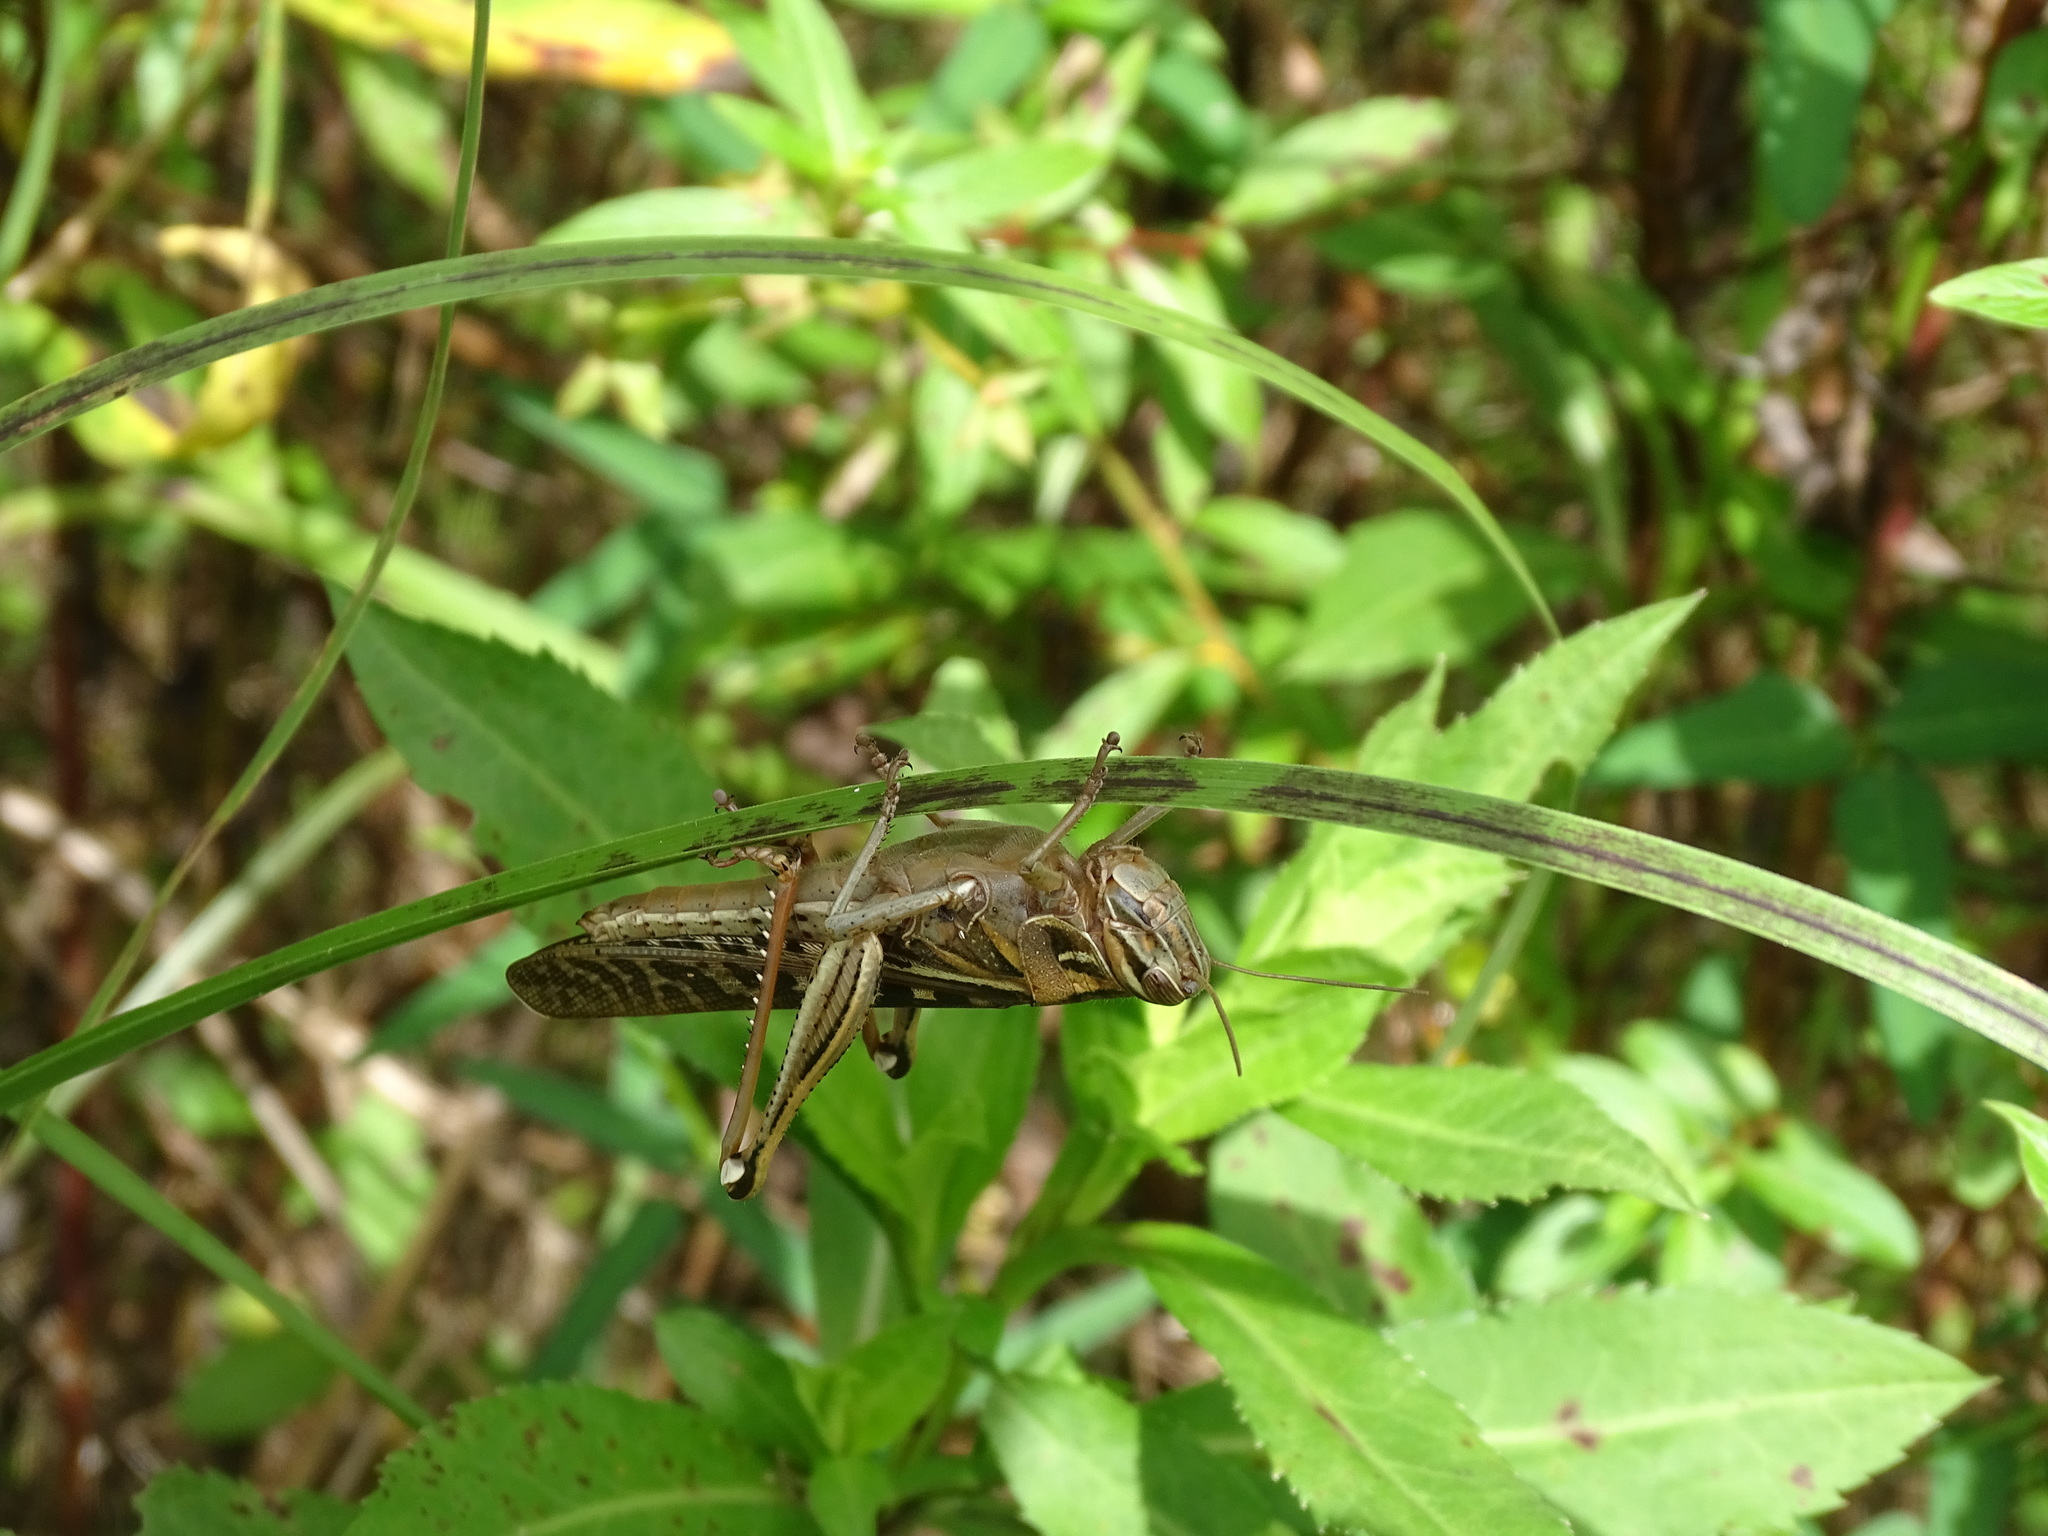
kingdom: Animalia
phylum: Arthropoda
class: Insecta
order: Orthoptera
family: Acrididae
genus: Schistocerca
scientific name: Schistocerca americana
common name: American bird locust
